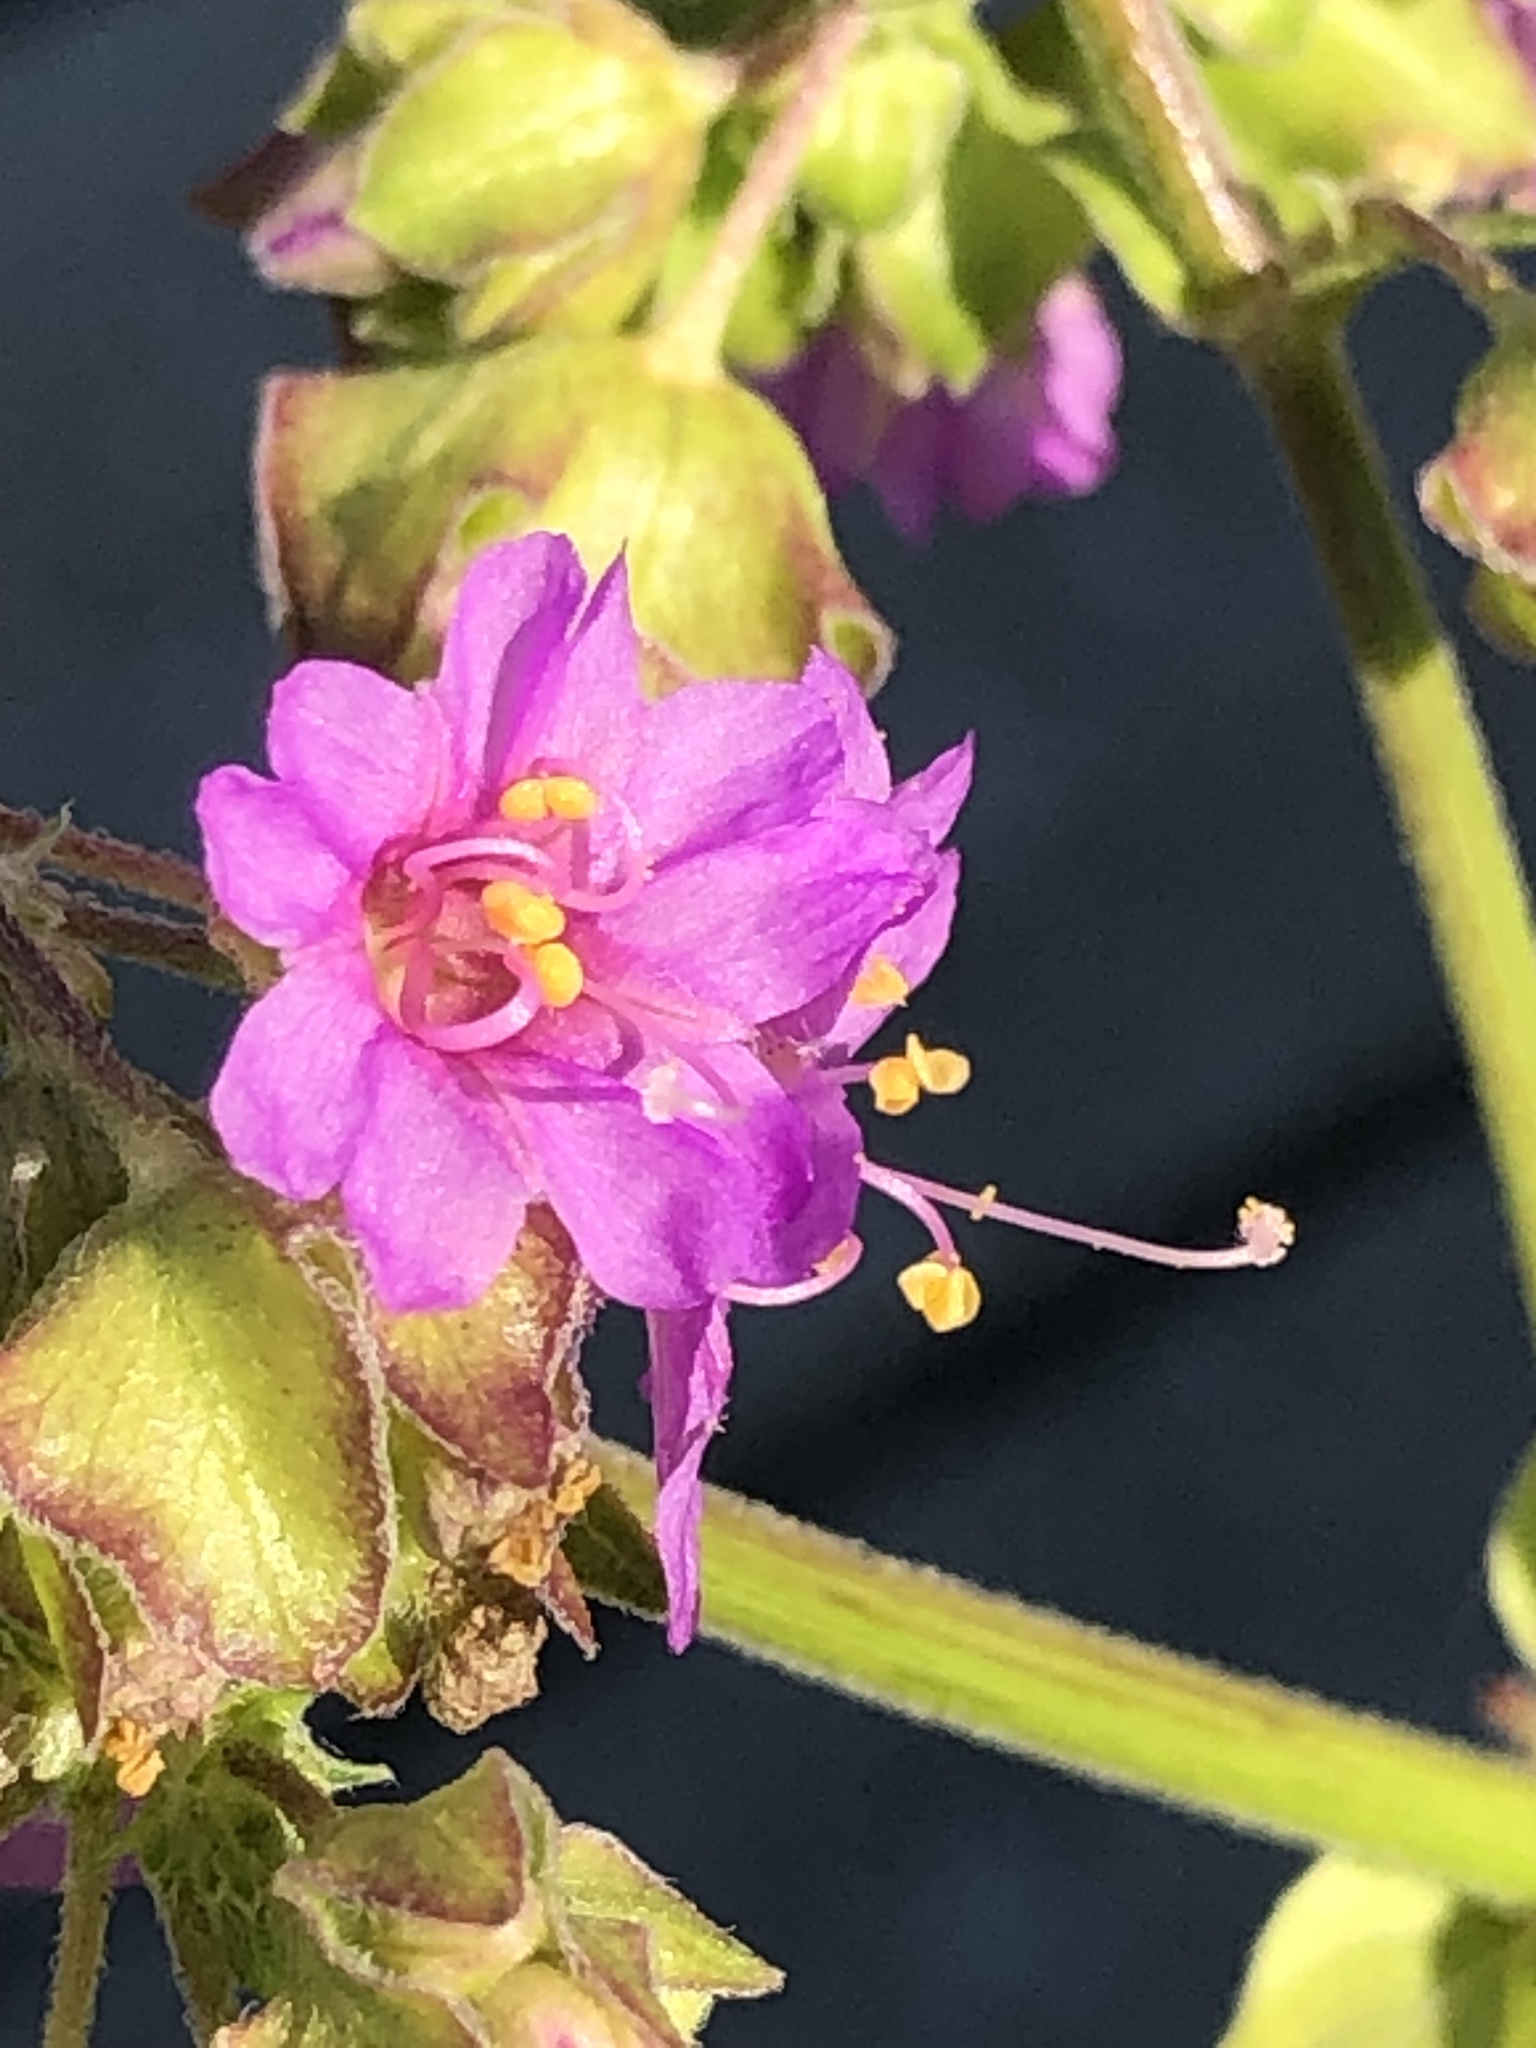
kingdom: Plantae
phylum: Tracheophyta
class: Magnoliopsida
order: Caryophyllales
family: Nyctaginaceae
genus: Mirabilis
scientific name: Mirabilis nyctaginea
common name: Umbrella wort
